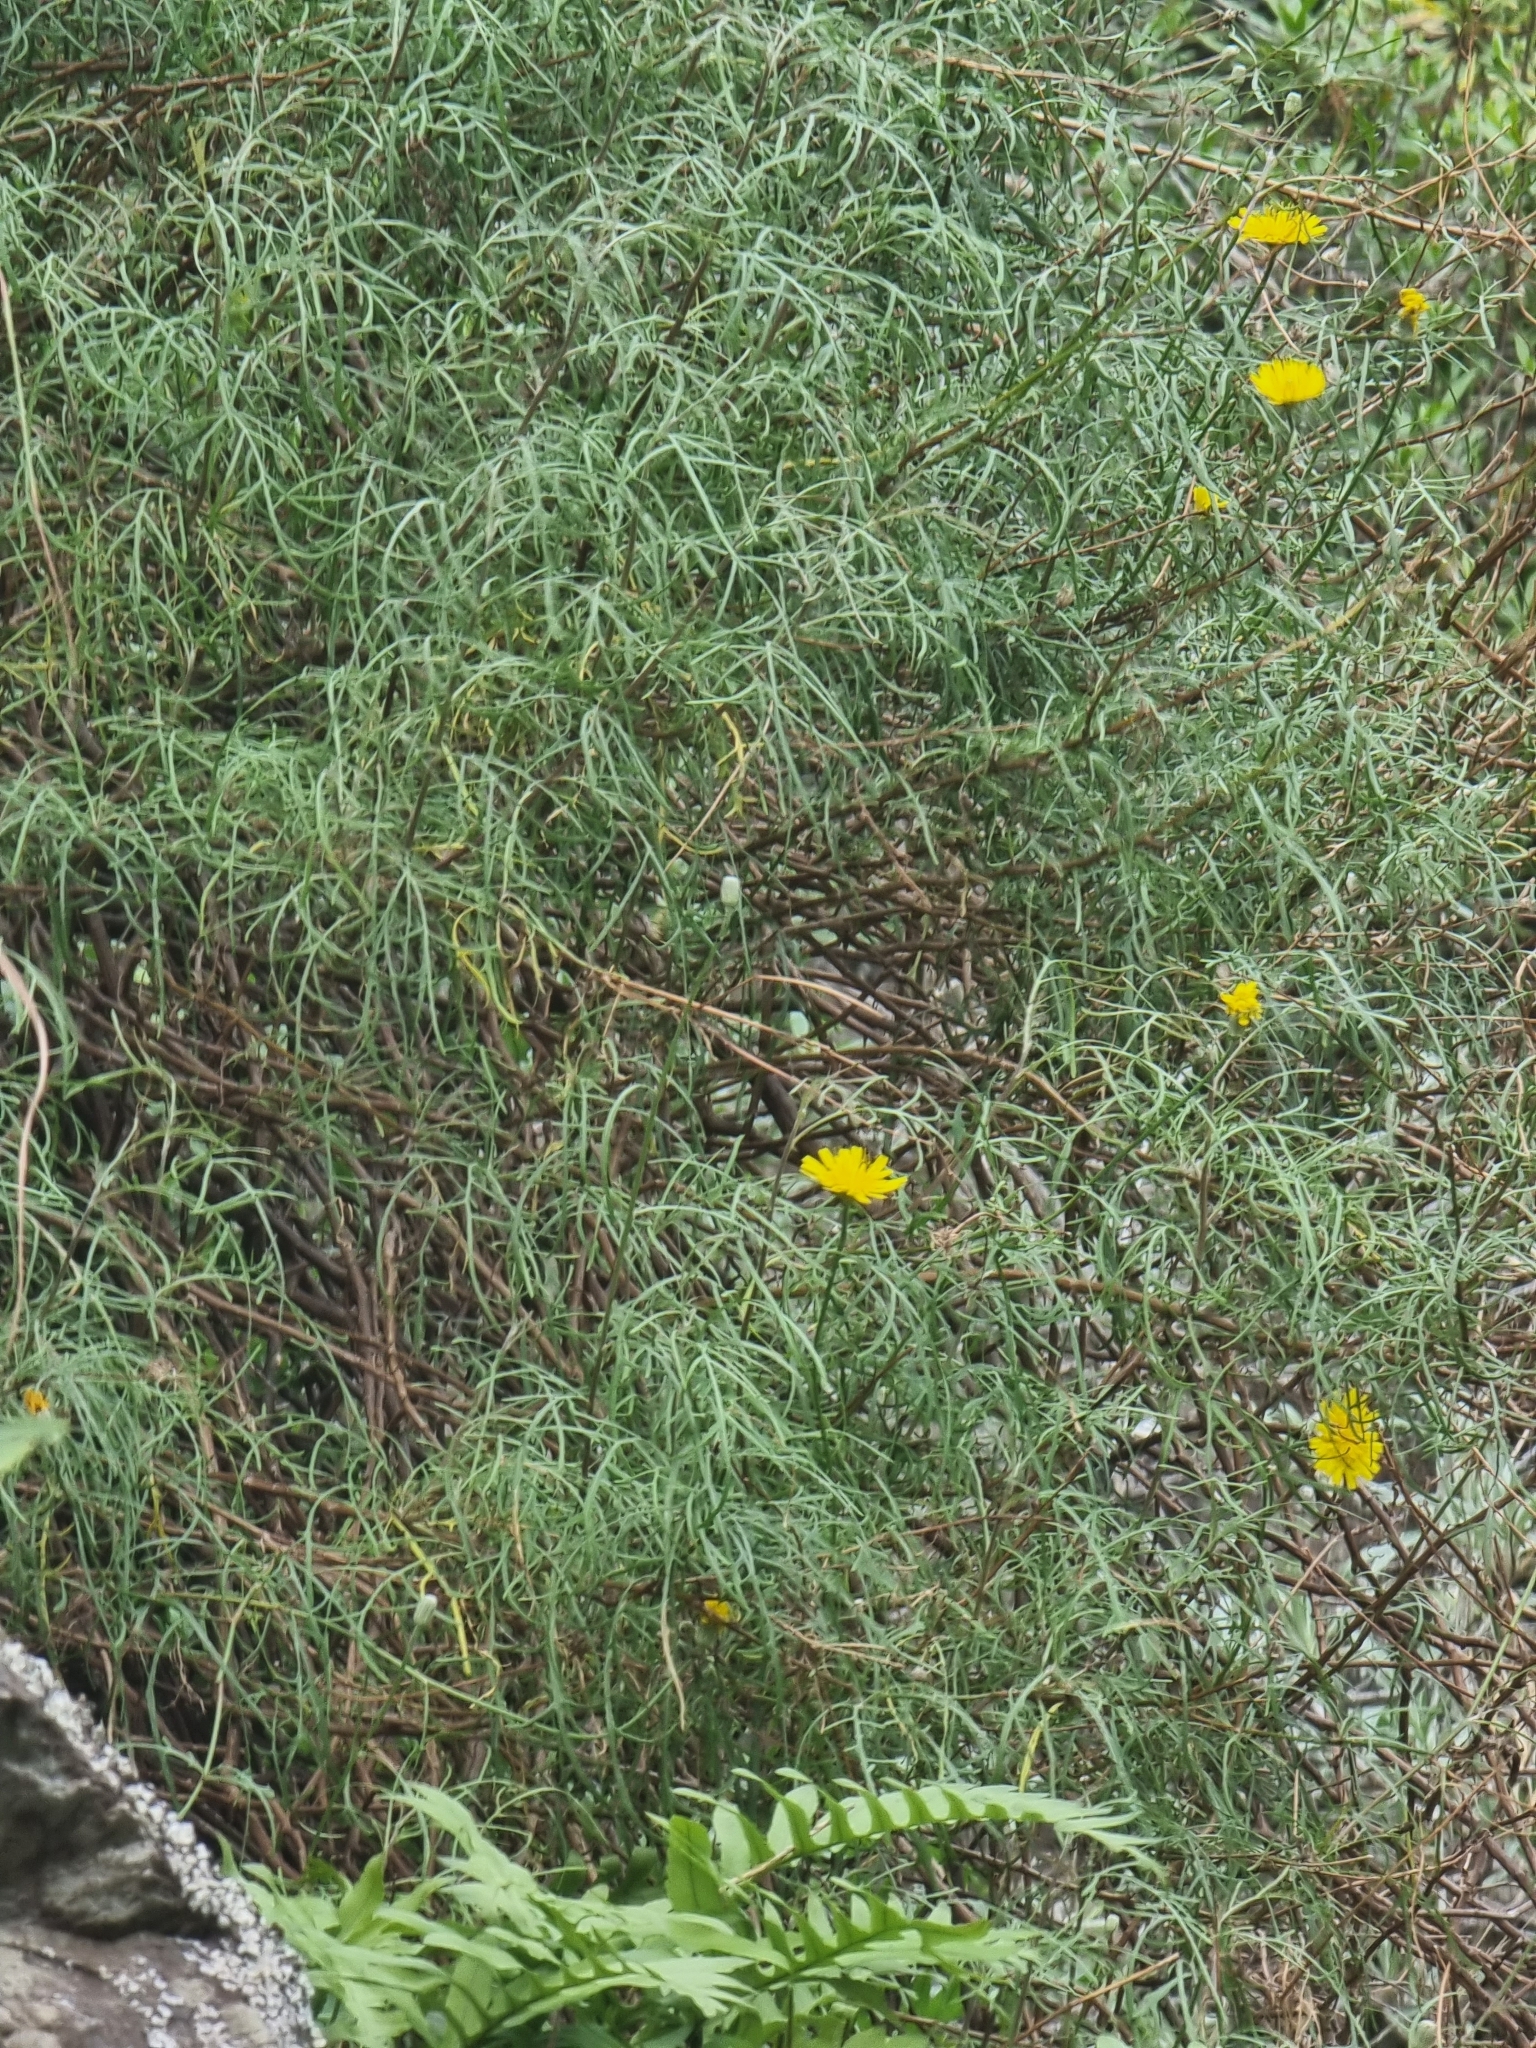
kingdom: Plantae
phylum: Tracheophyta
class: Magnoliopsida
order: Asterales
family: Asteraceae
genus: Tolpis
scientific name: Tolpis succulenta
